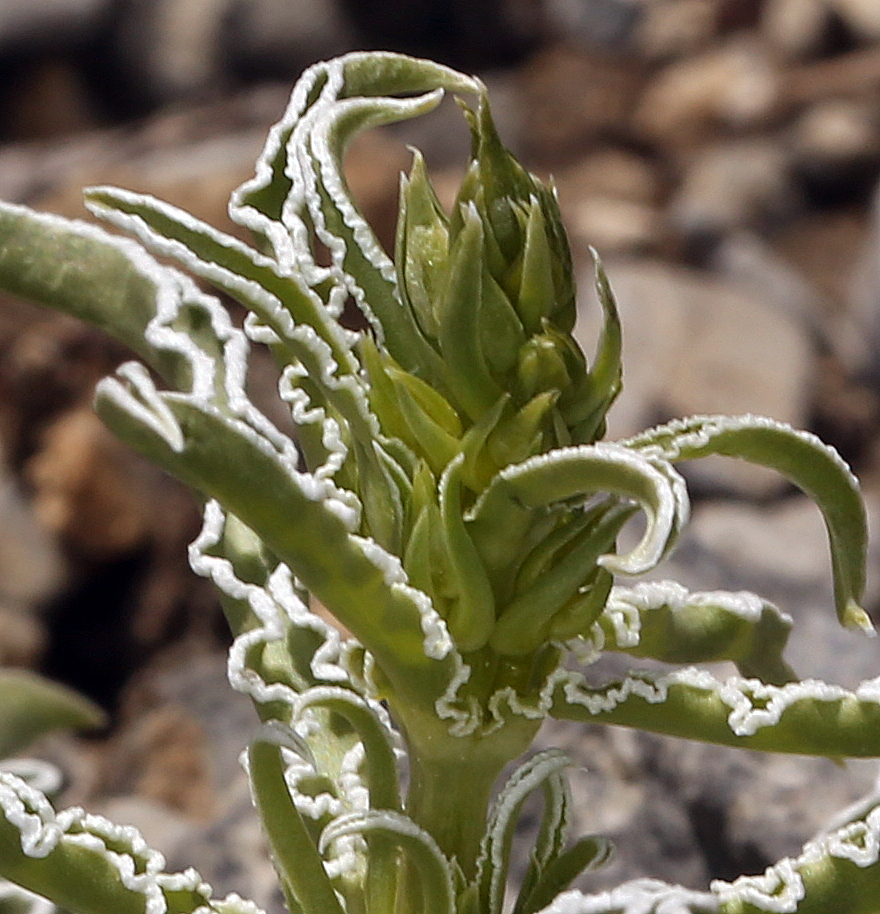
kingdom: Plantae
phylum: Tracheophyta
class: Magnoliopsida
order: Gentianales
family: Gentianaceae
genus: Frasera
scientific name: Frasera albomarginata
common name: Desert frasera
